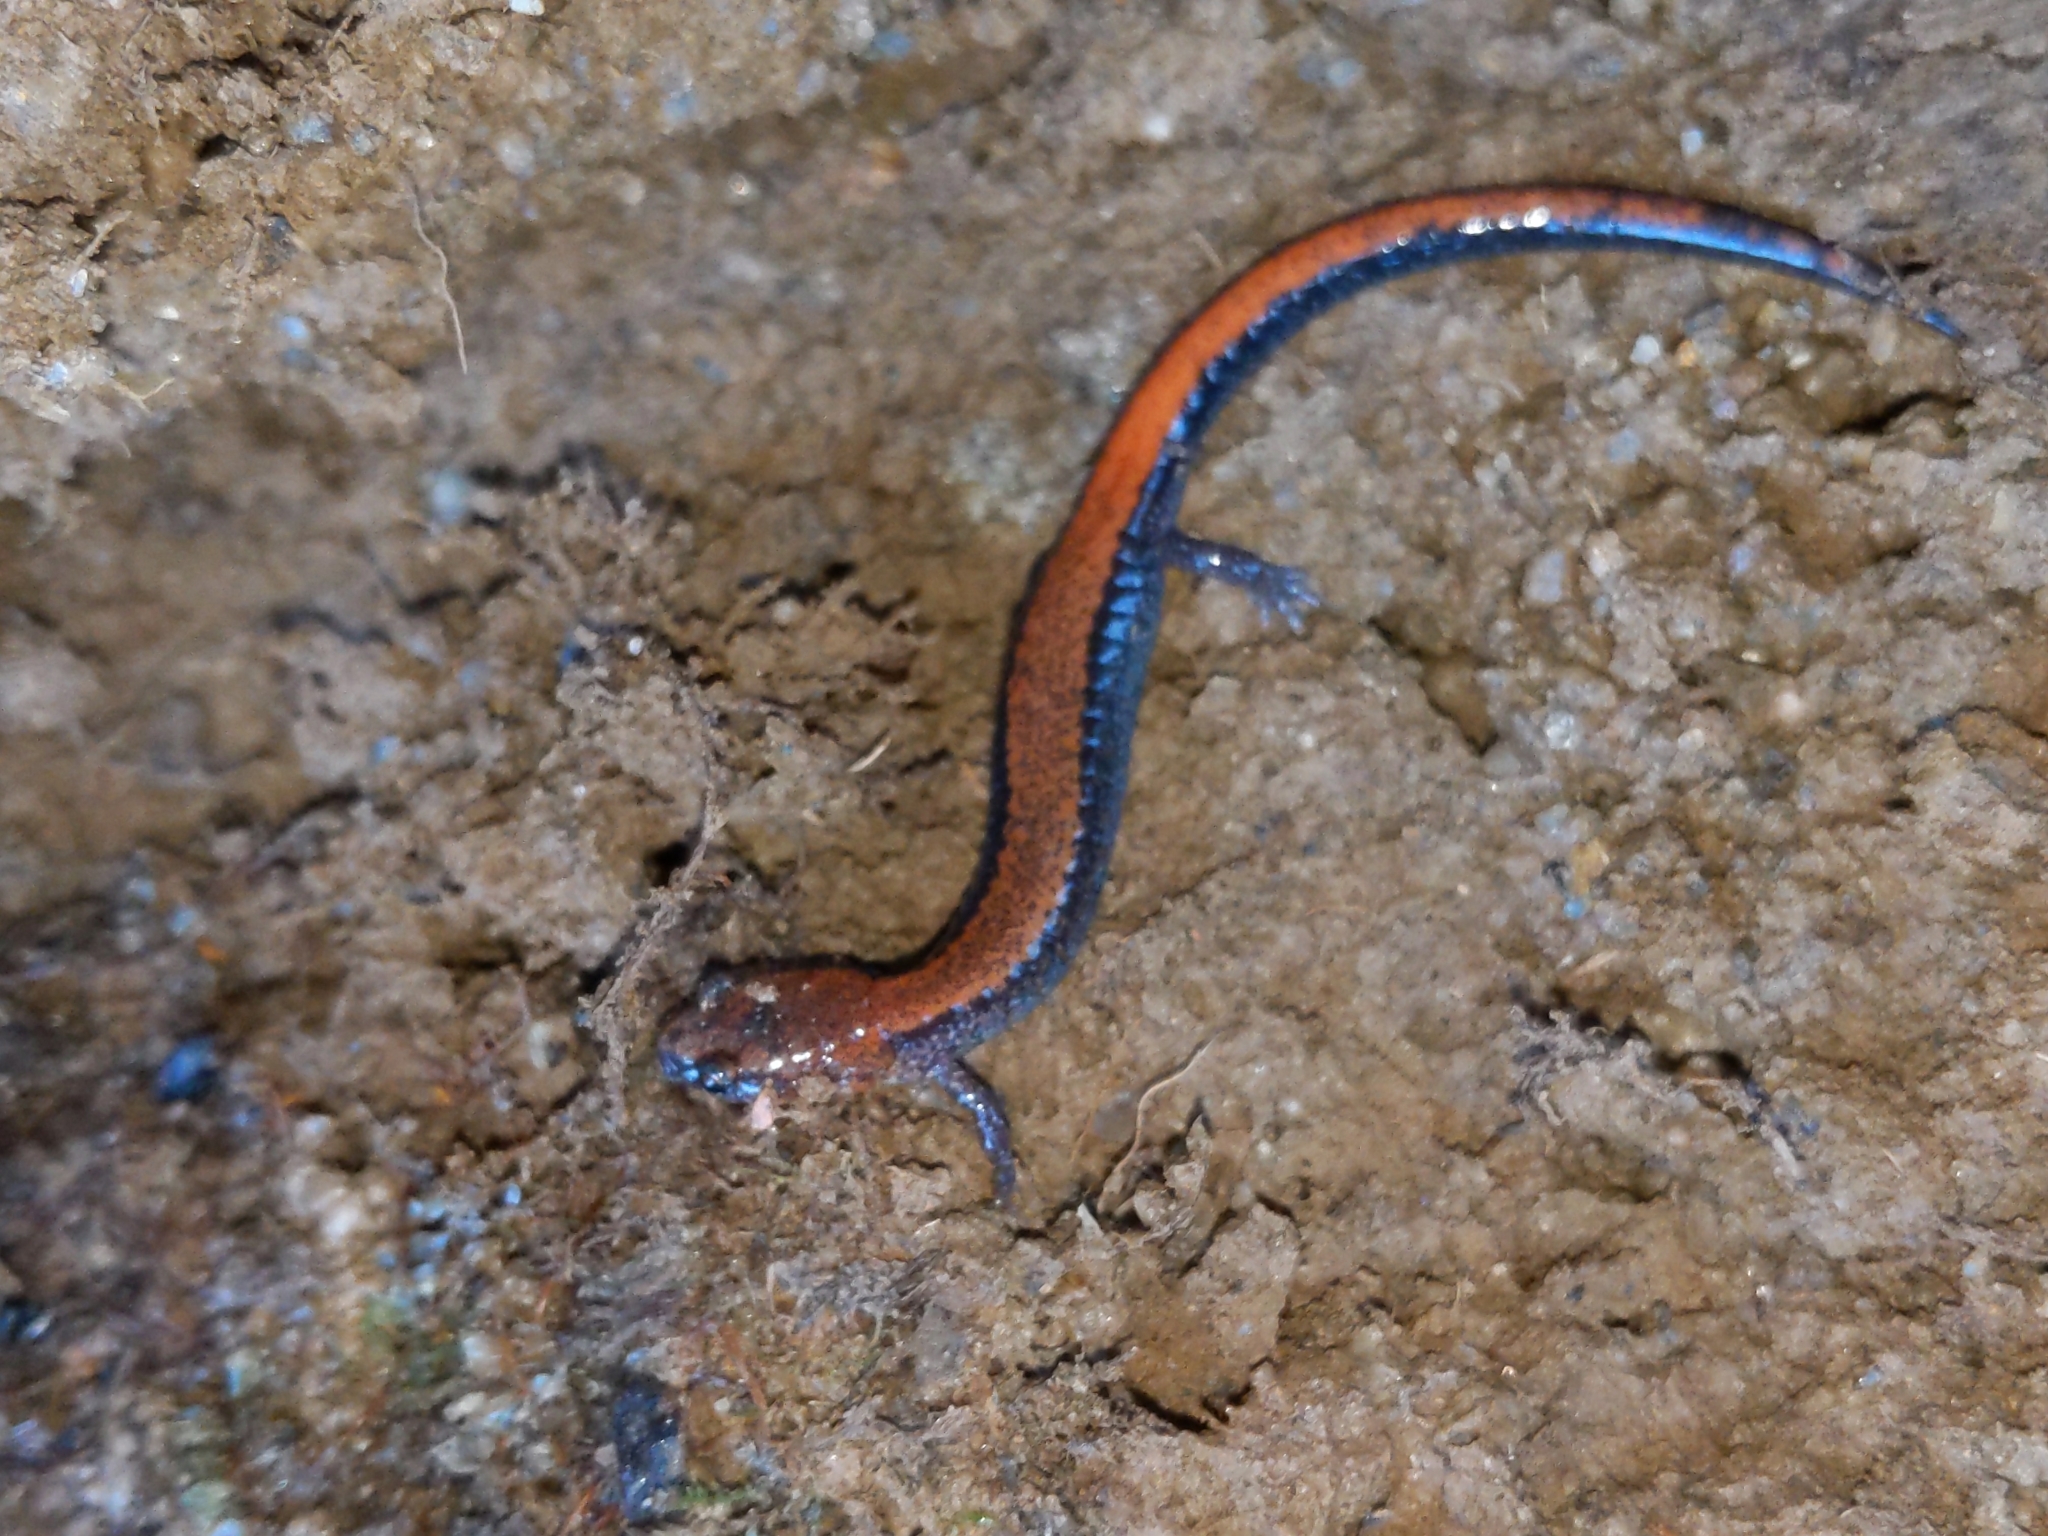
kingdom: Animalia
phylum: Chordata
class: Amphibia
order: Caudata
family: Plethodontidae
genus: Plethodon
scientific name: Plethodon cinereus
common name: Redback salamander
